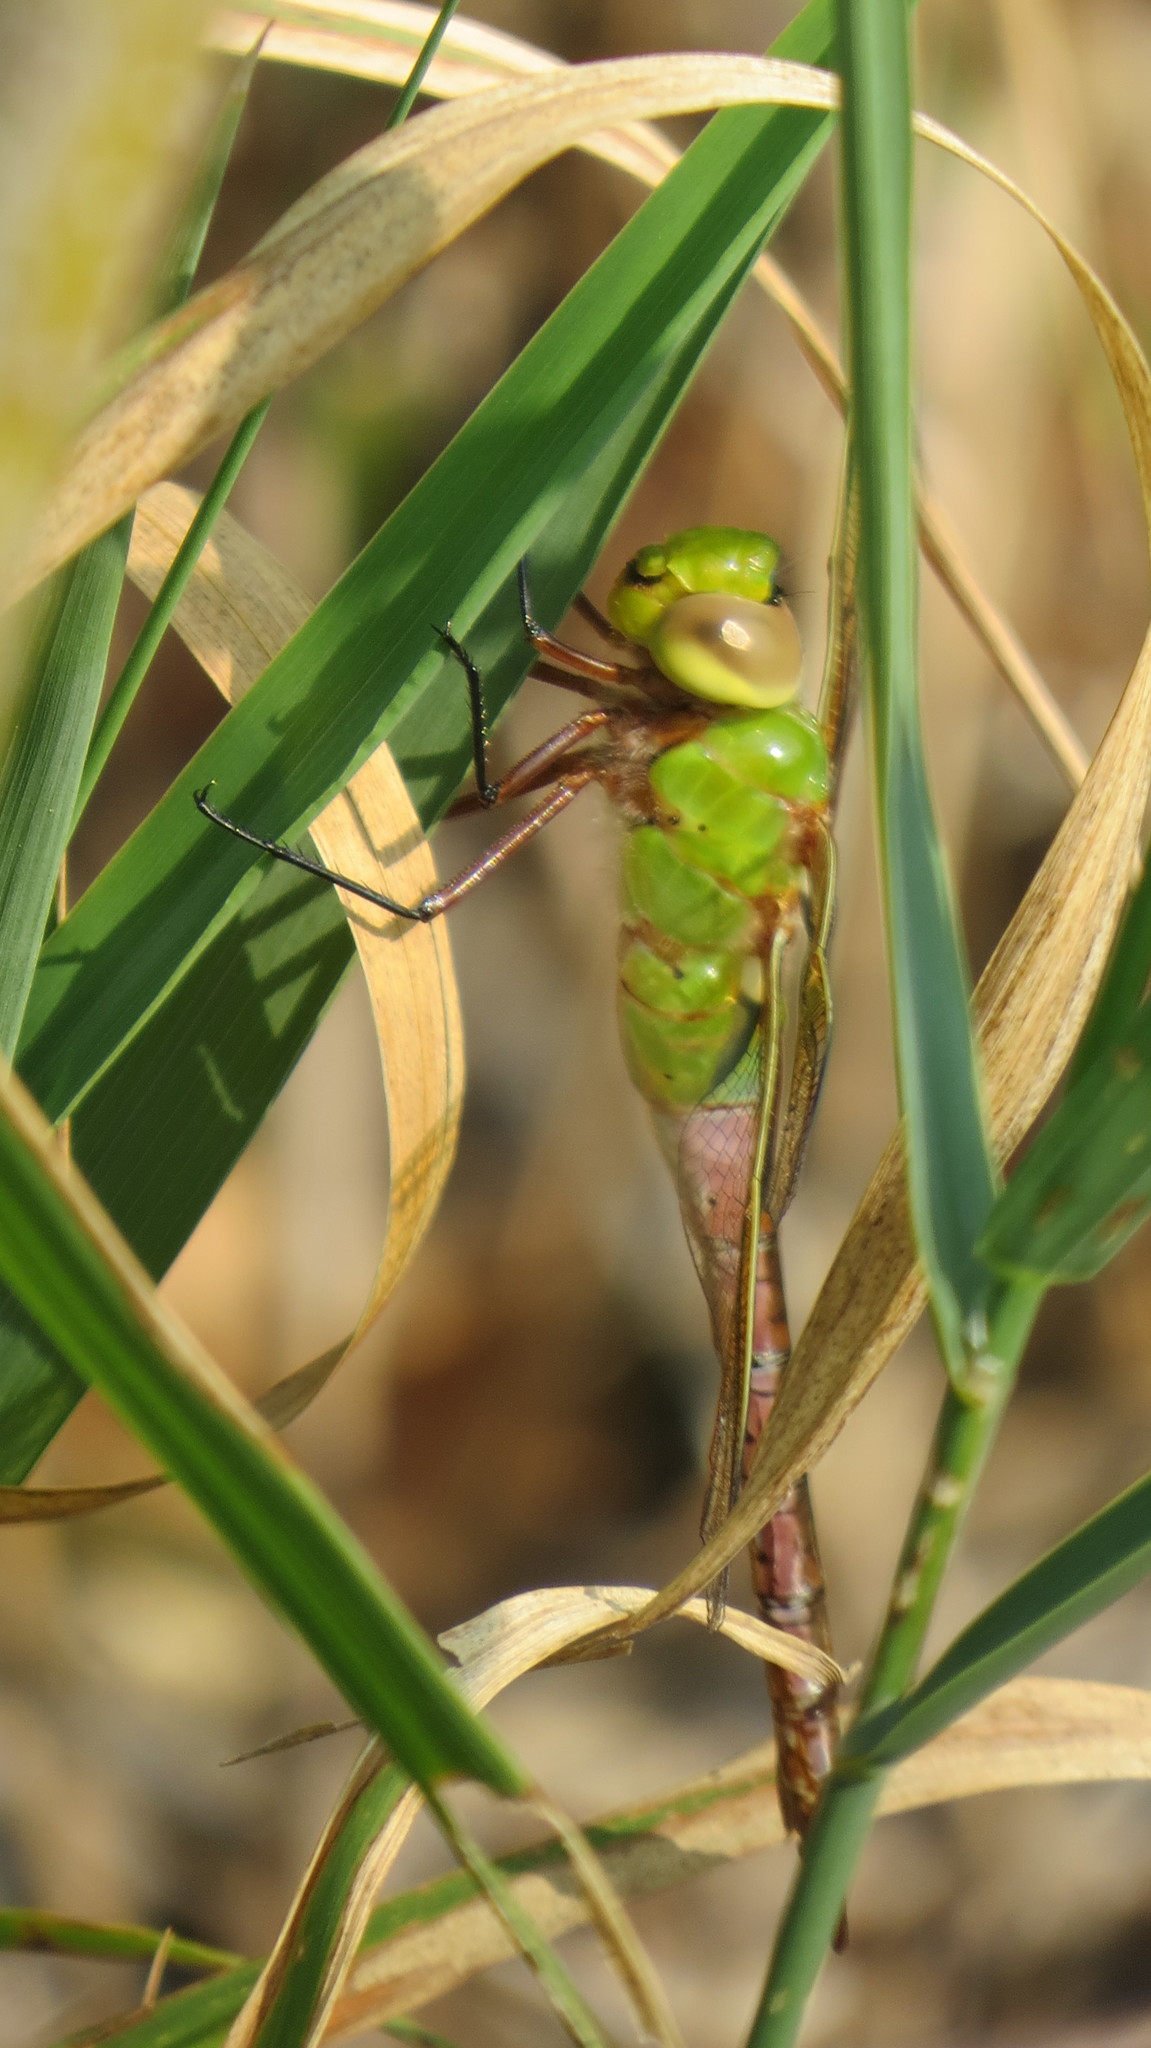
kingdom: Animalia
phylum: Arthropoda
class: Insecta
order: Odonata
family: Aeshnidae
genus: Anax
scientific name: Anax junius
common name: Common green darner
